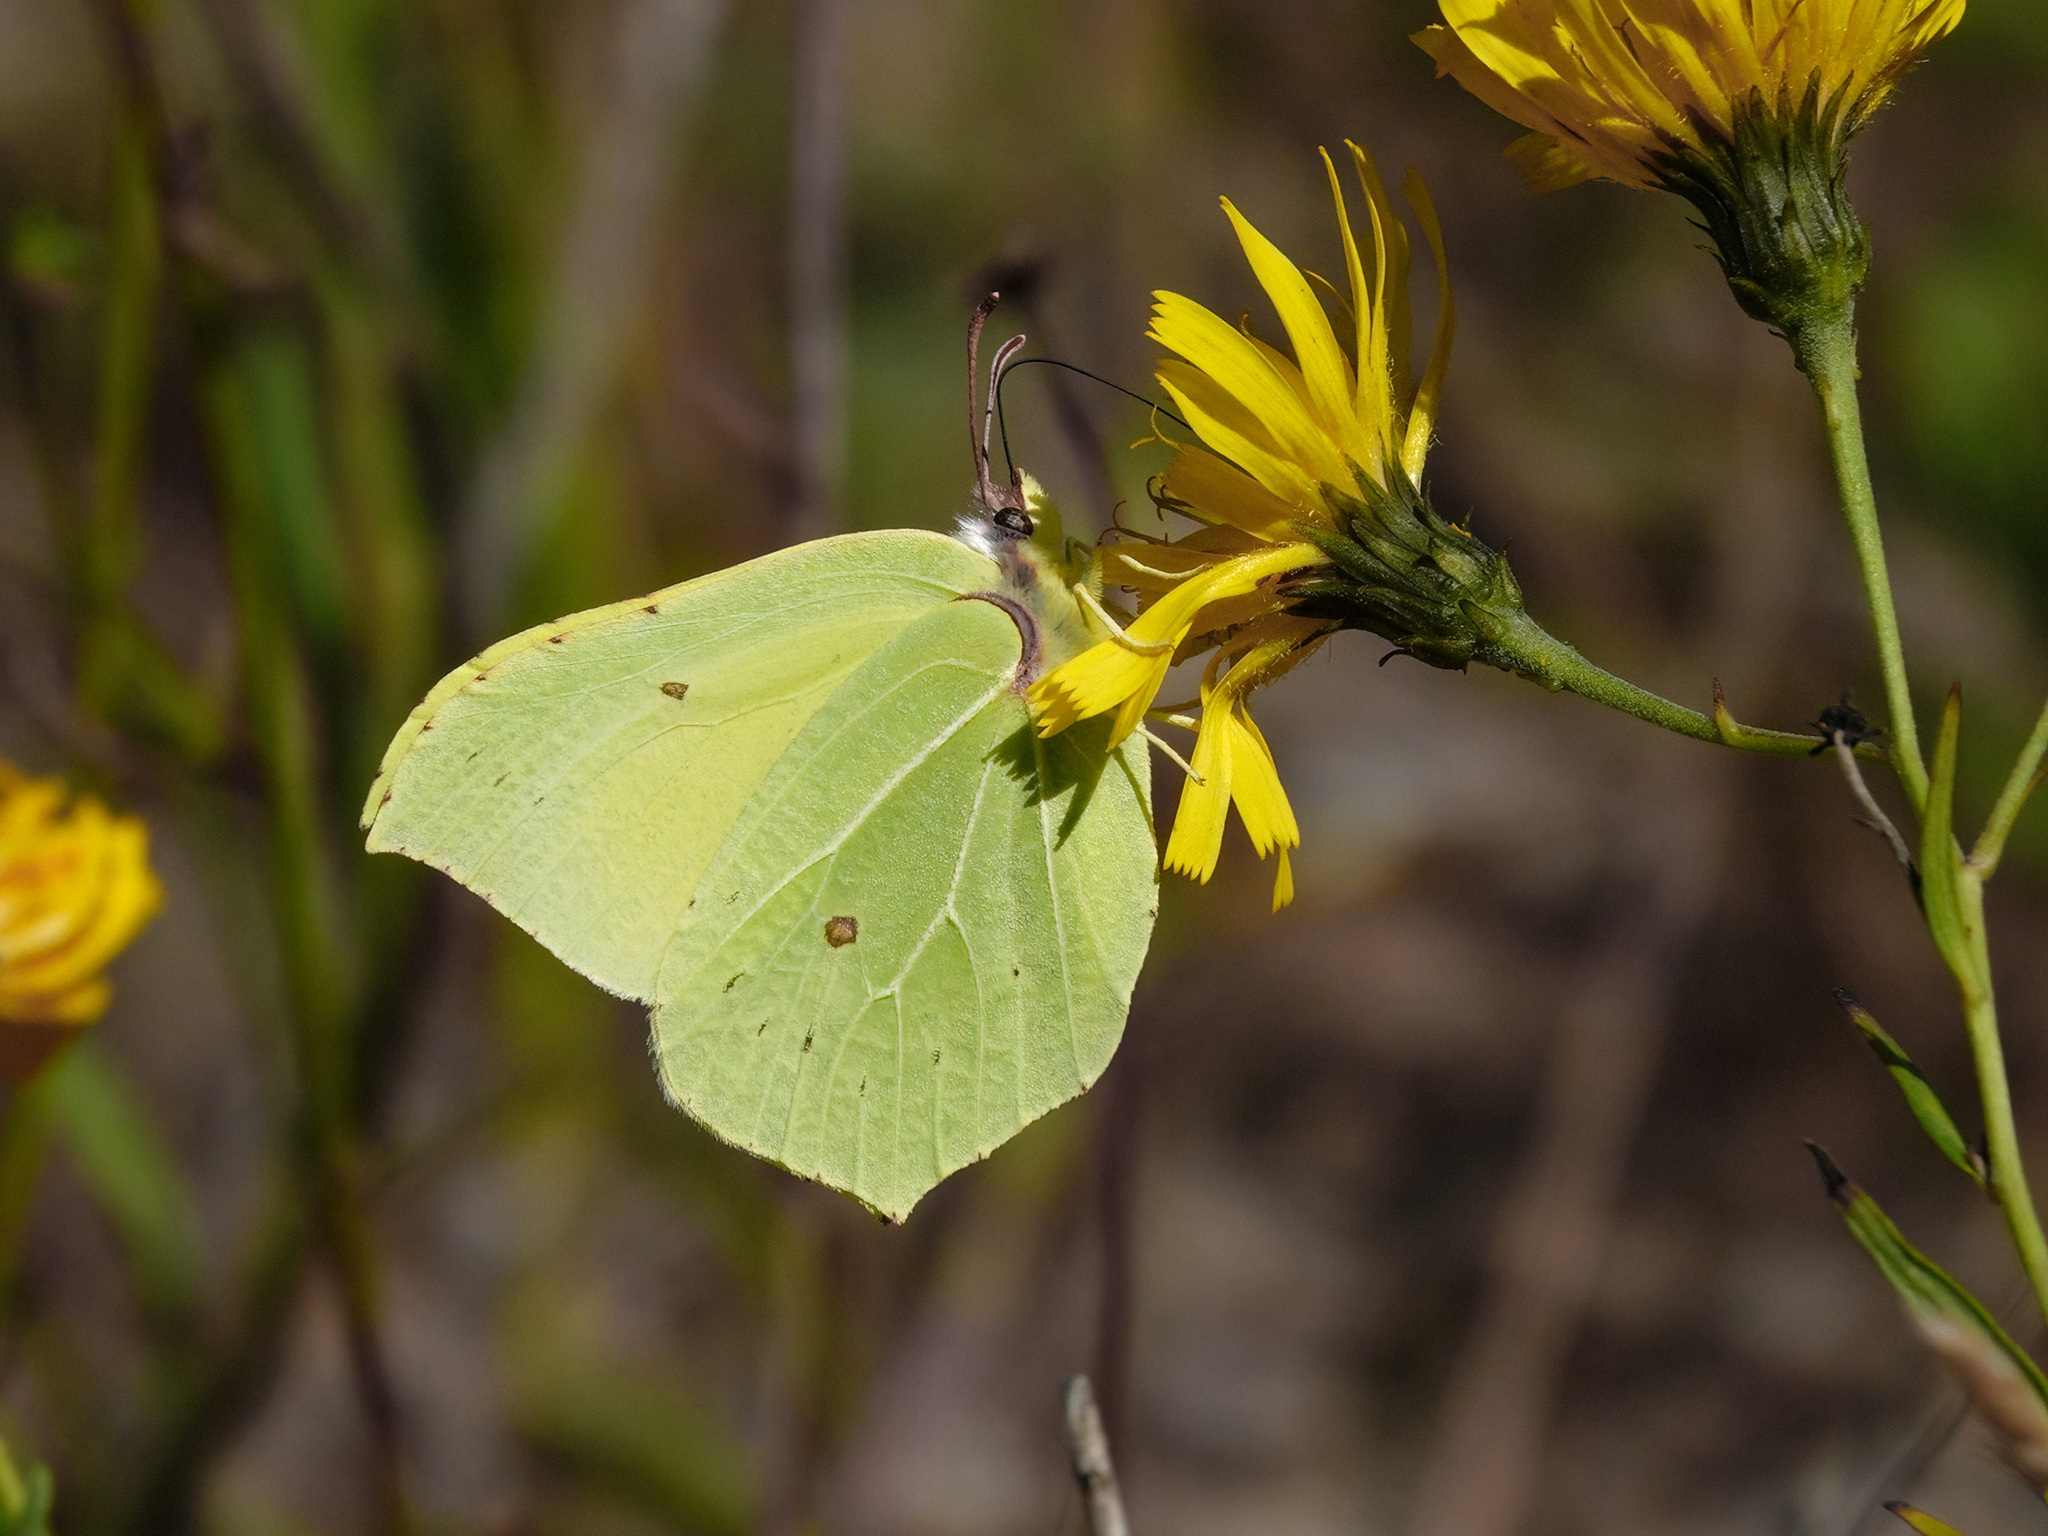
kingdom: Animalia
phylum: Arthropoda
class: Insecta
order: Lepidoptera
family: Pieridae
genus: Gonepteryx
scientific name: Gonepteryx rhamni
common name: Brimstone
